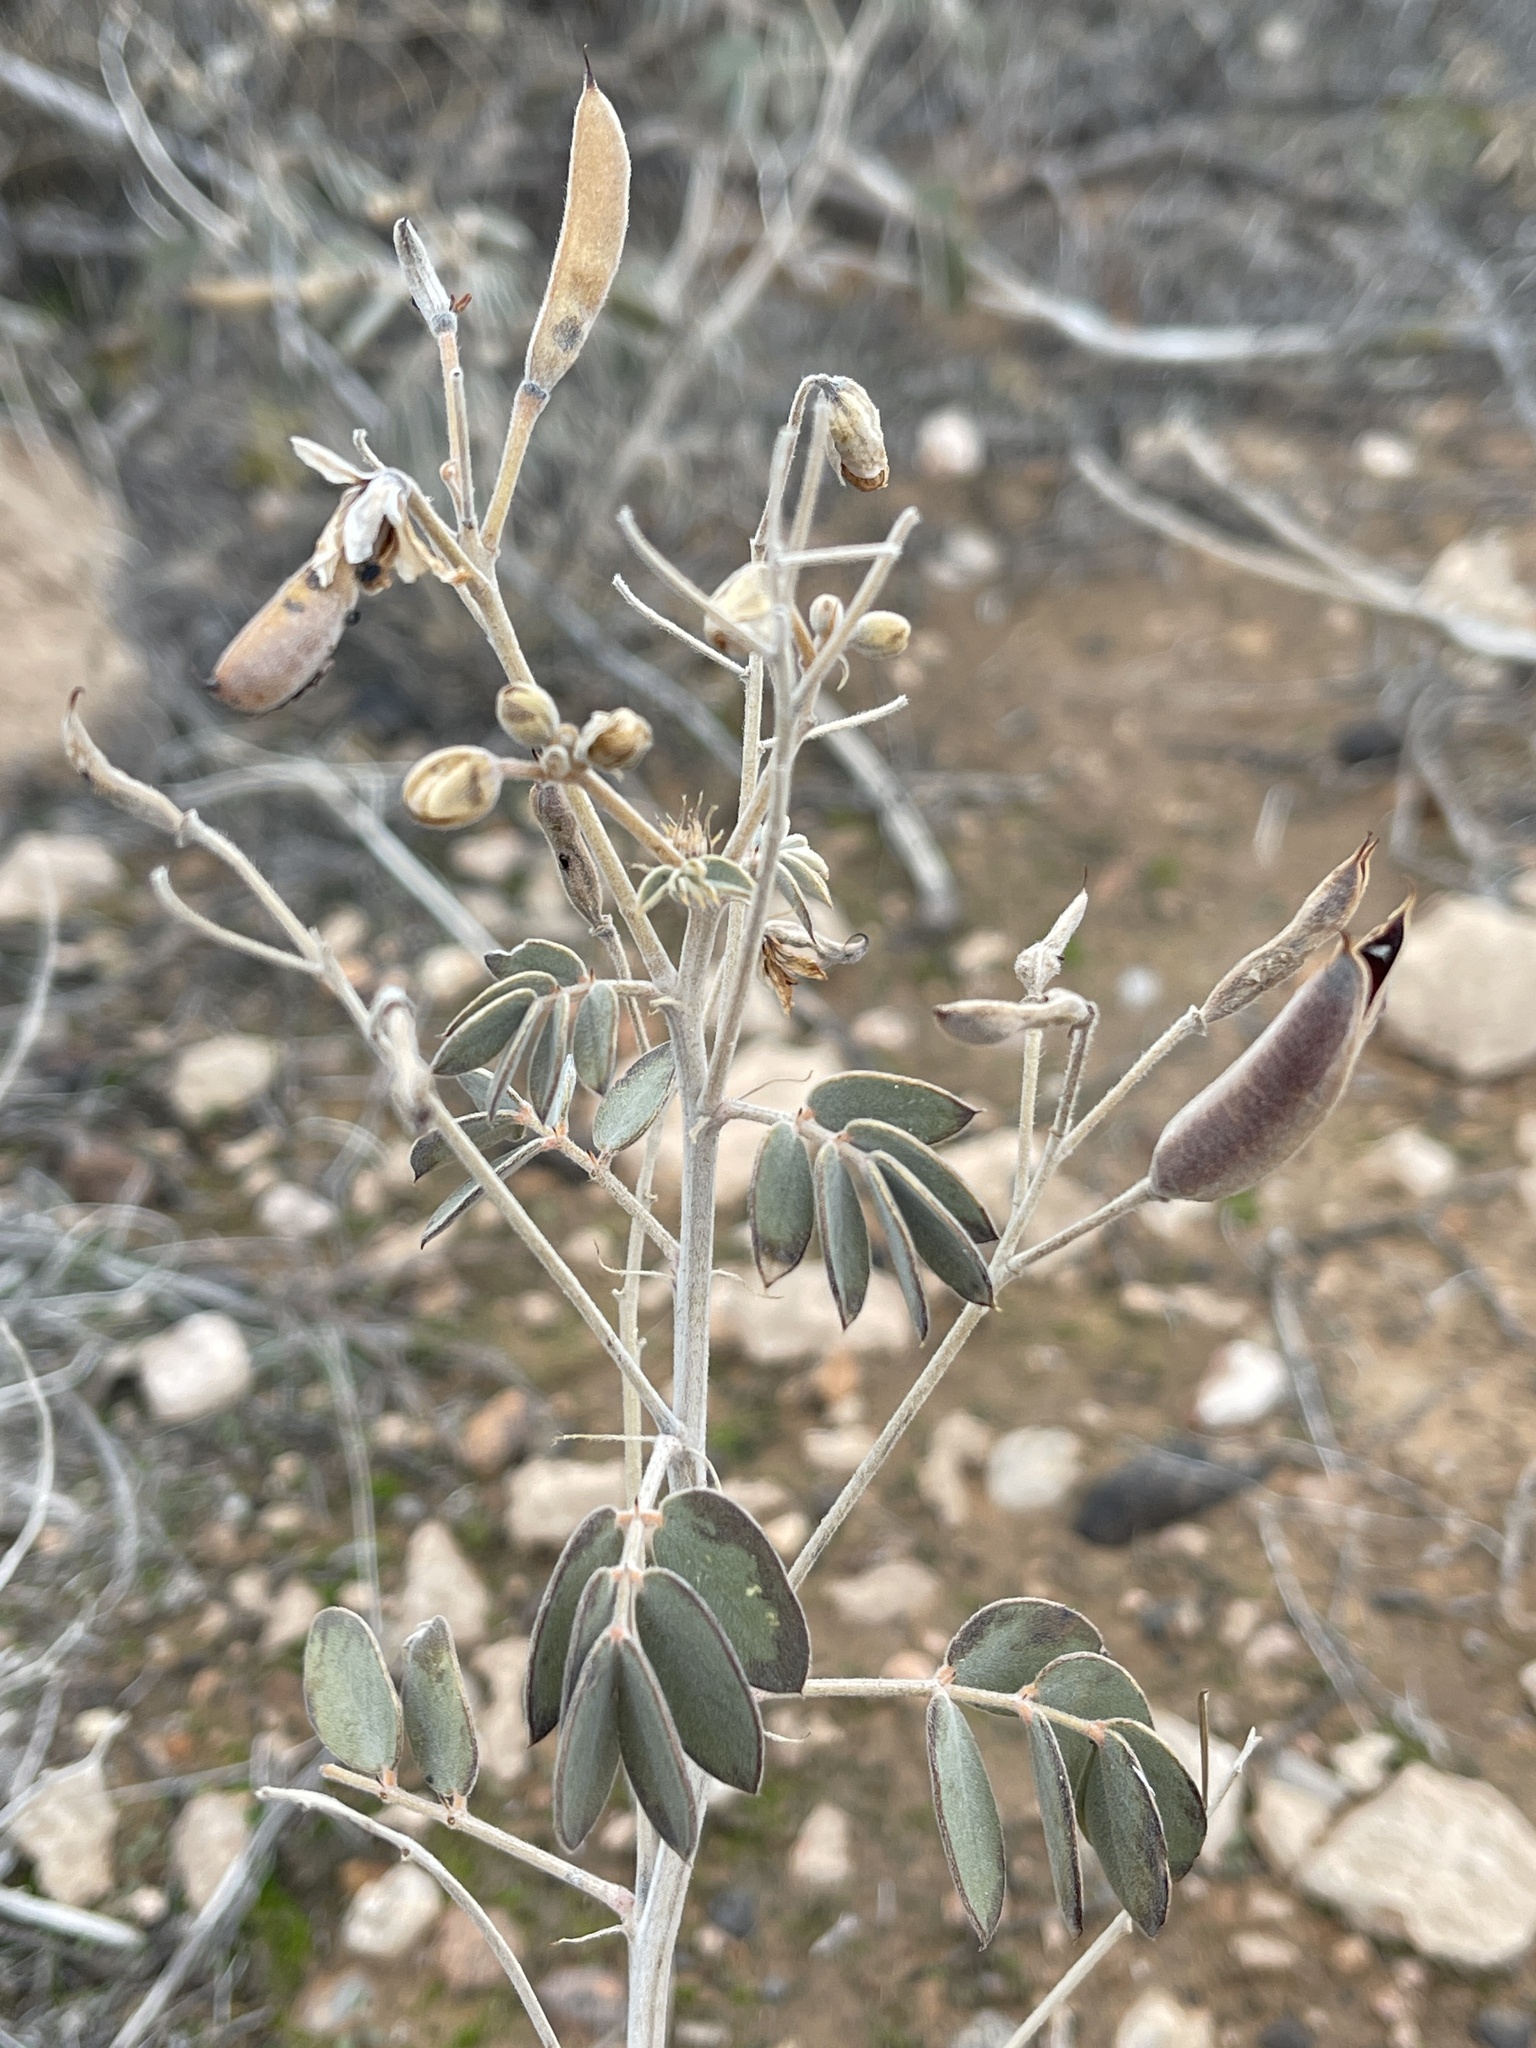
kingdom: Plantae
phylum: Tracheophyta
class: Magnoliopsida
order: Fabales
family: Fabaceae
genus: Senna
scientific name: Senna covesii
